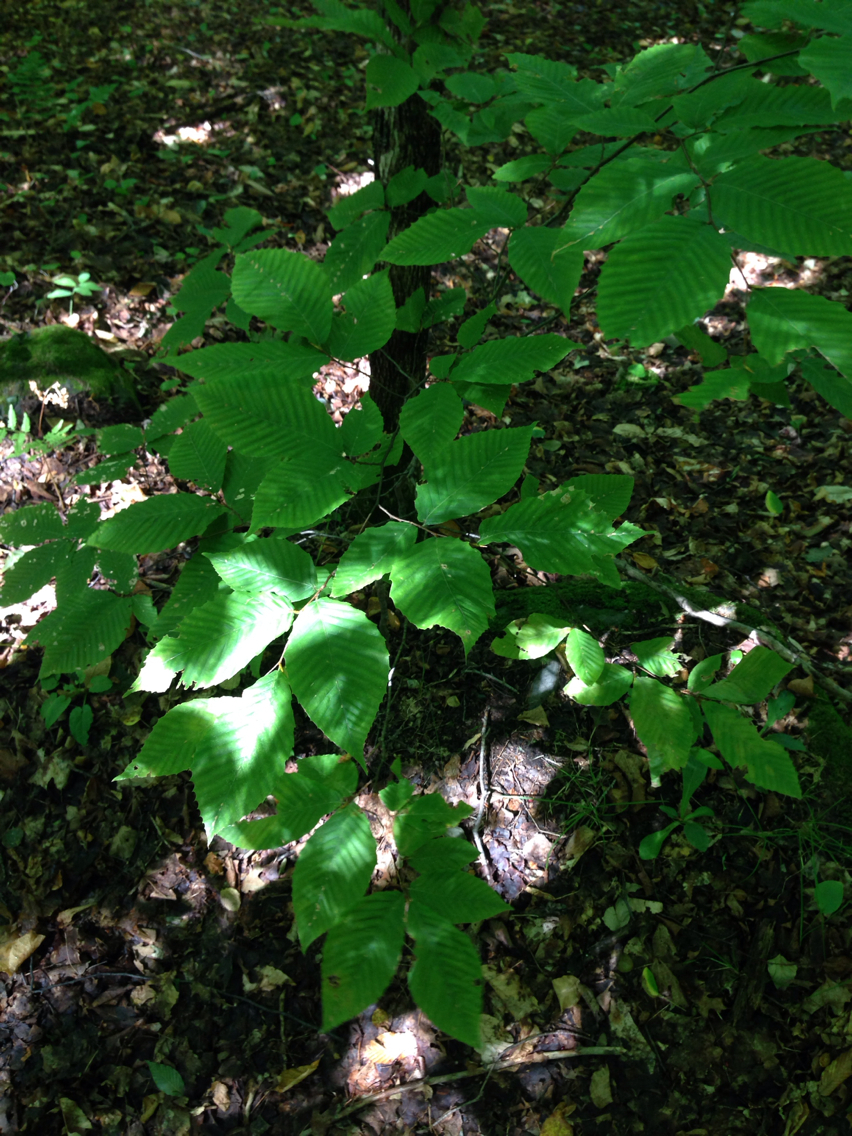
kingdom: Plantae
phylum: Tracheophyta
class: Magnoliopsida
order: Fagales
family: Fagaceae
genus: Fagus
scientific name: Fagus grandifolia
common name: American beech
